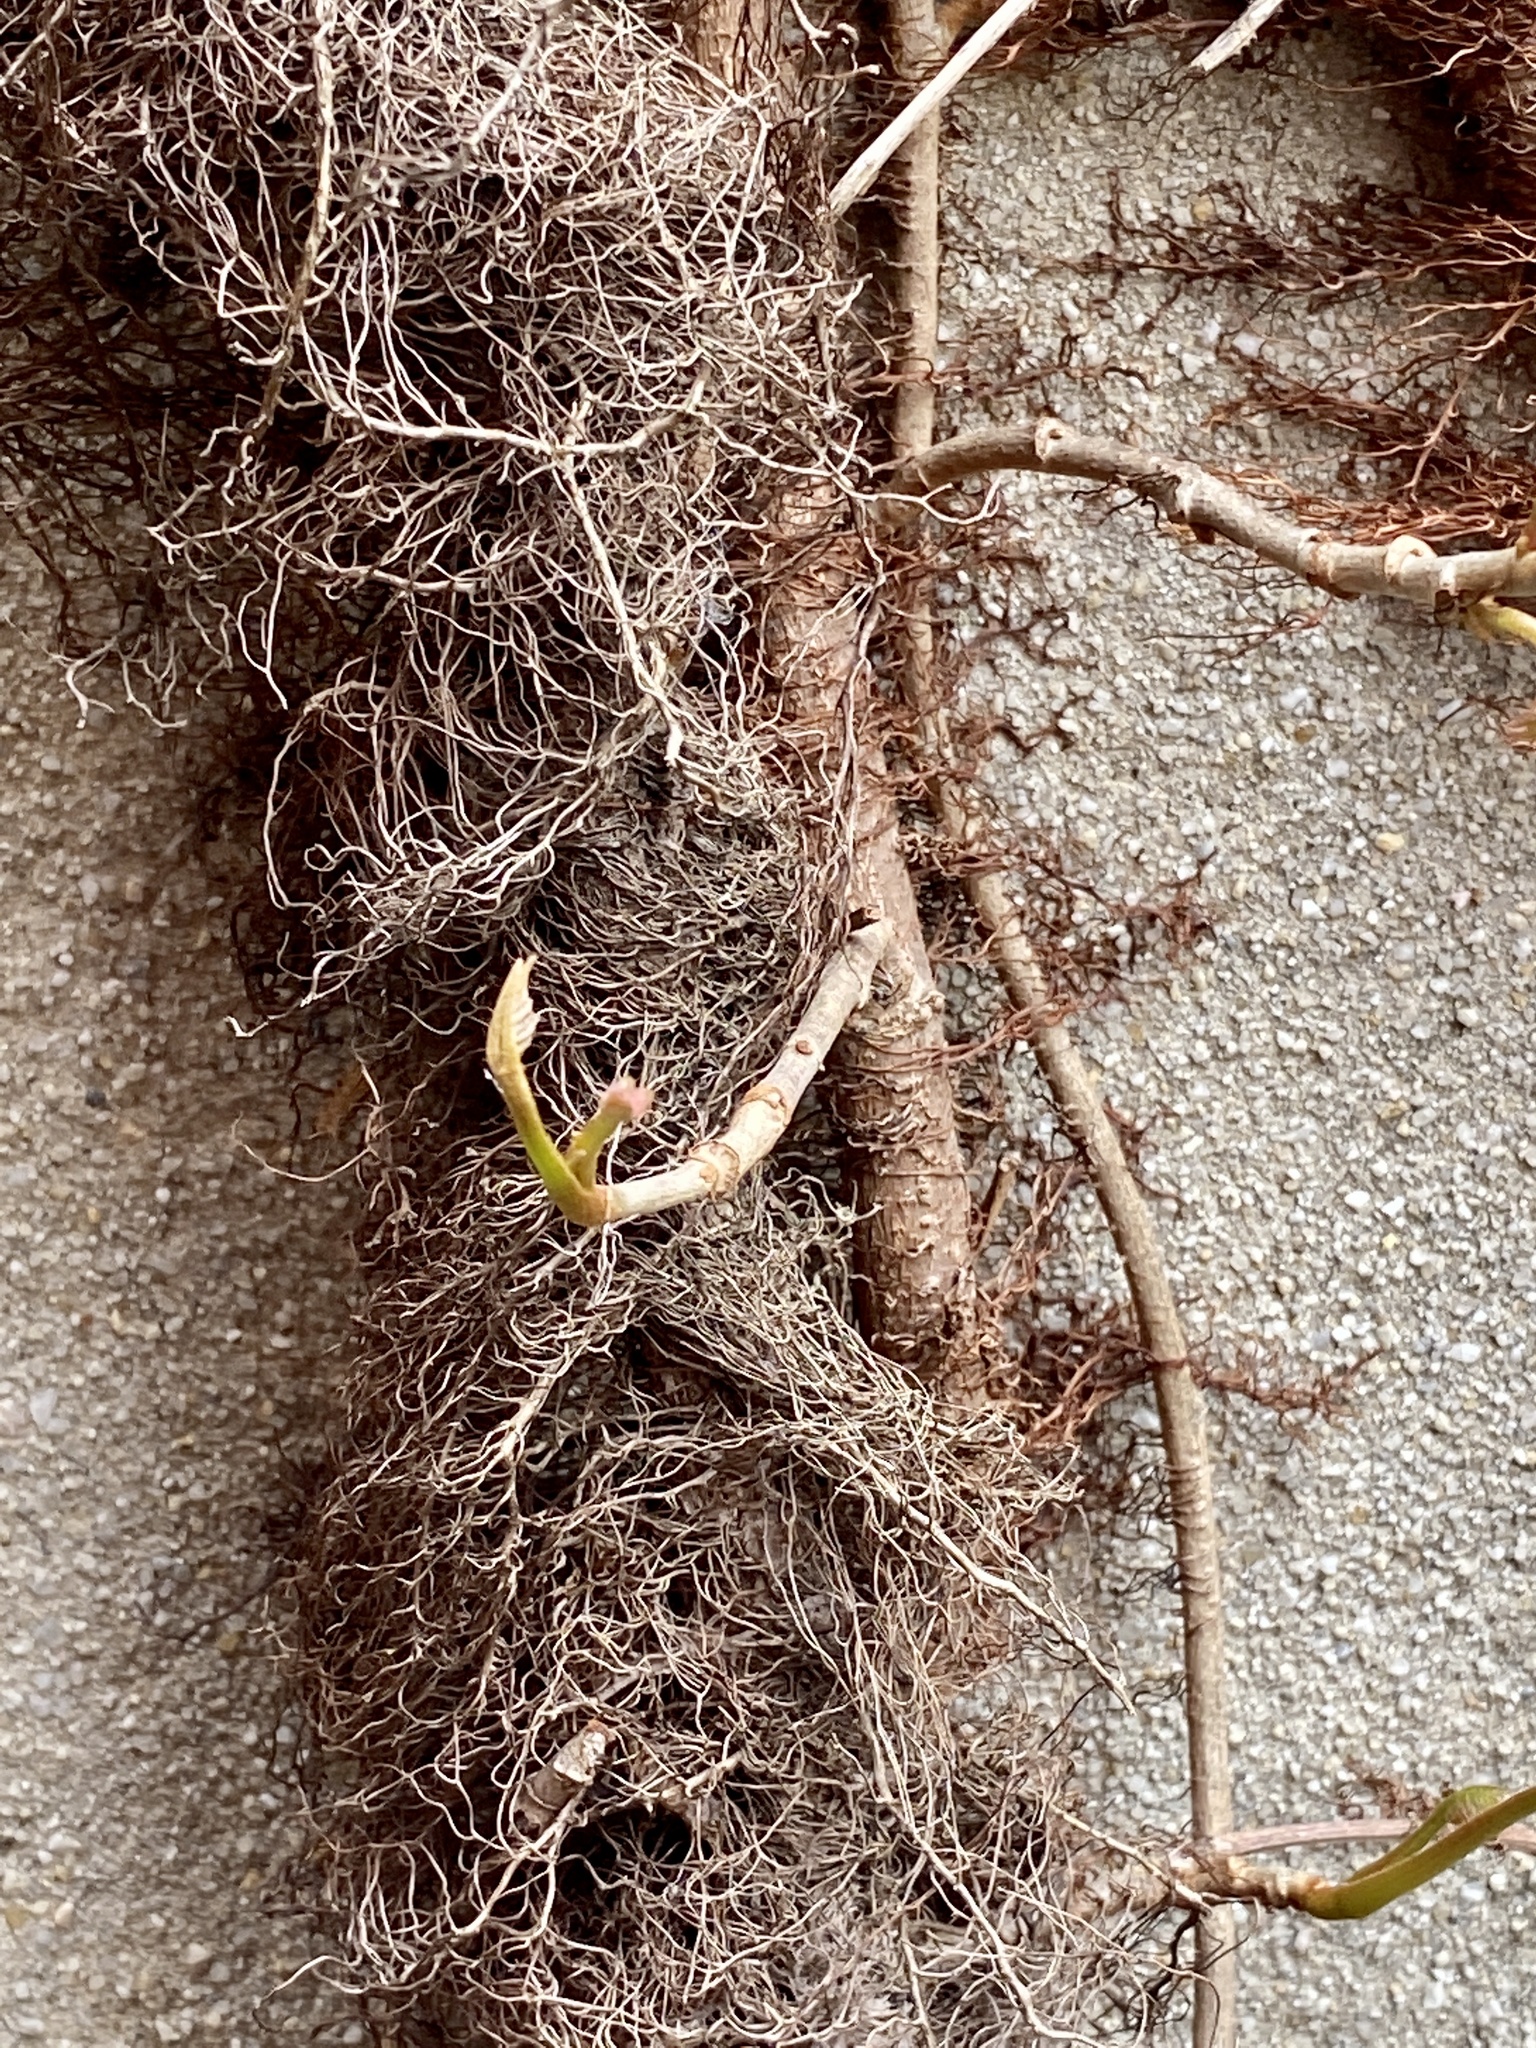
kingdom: Plantae
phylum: Tracheophyta
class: Magnoliopsida
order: Sapindales
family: Anacardiaceae
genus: Toxicodendron
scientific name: Toxicodendron radicans
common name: Poison ivy
